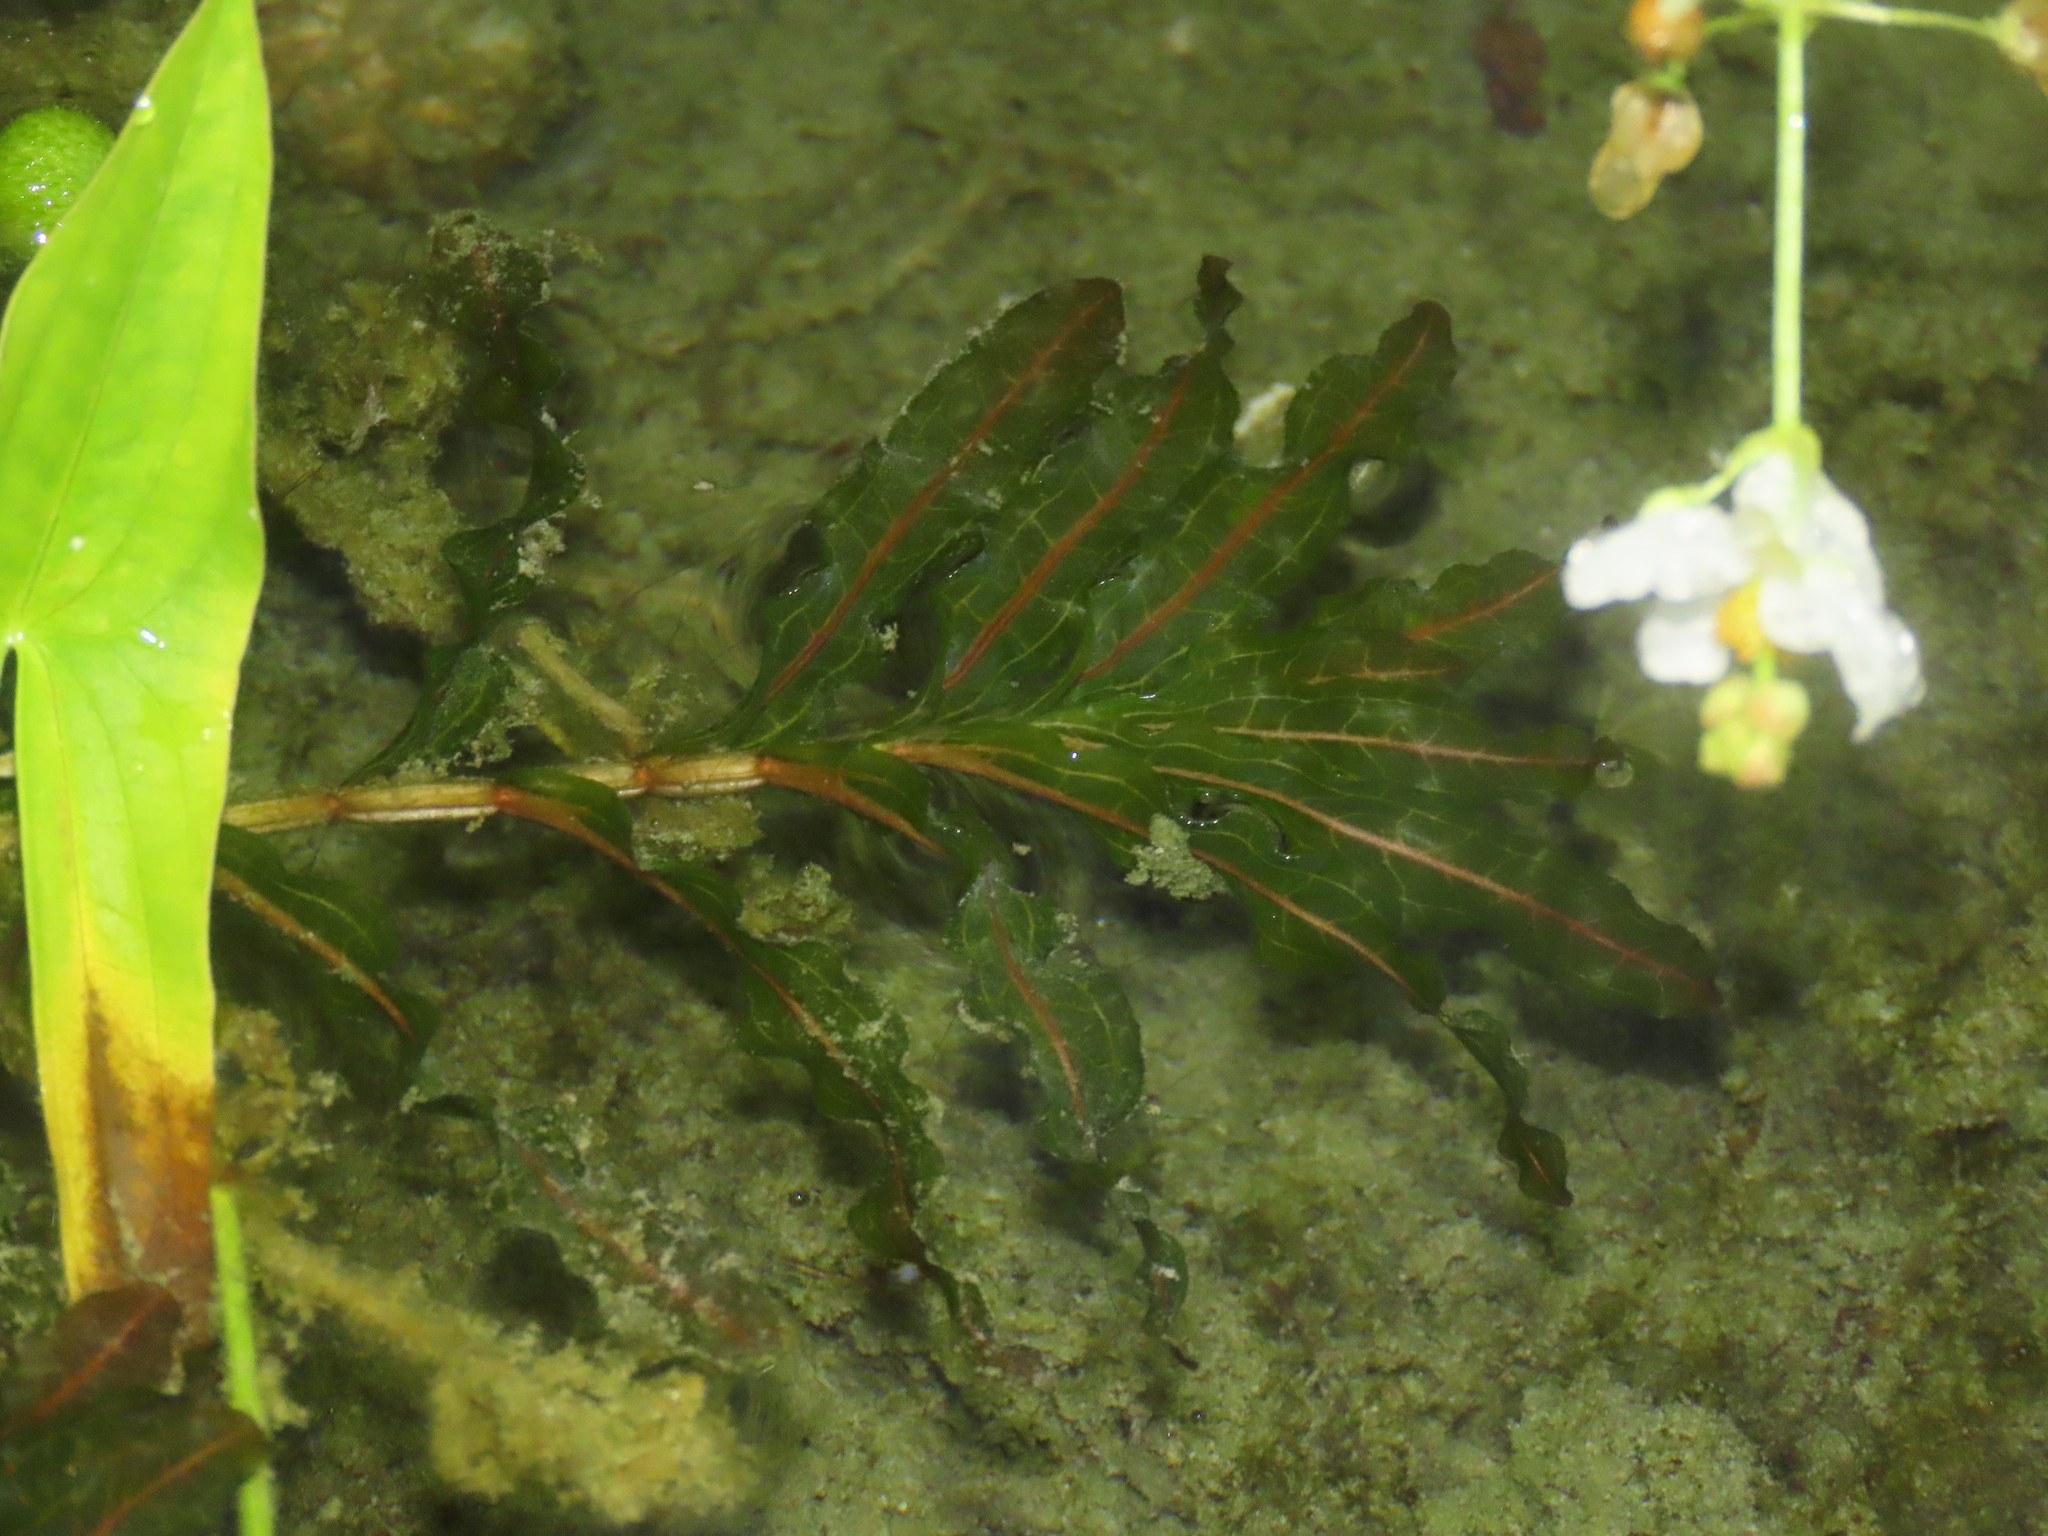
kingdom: Plantae
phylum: Tracheophyta
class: Liliopsida
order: Alismatales
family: Potamogetonaceae
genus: Potamogeton
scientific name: Potamogeton crispus
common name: Curled pondweed
